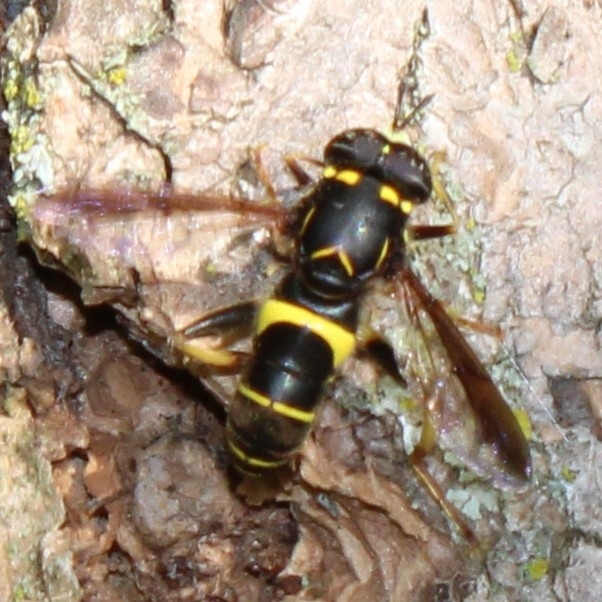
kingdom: Animalia
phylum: Arthropoda
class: Insecta
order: Diptera
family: Syrphidae
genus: Spilomyia
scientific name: Spilomyia sayi
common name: Four-lined hornet fly
